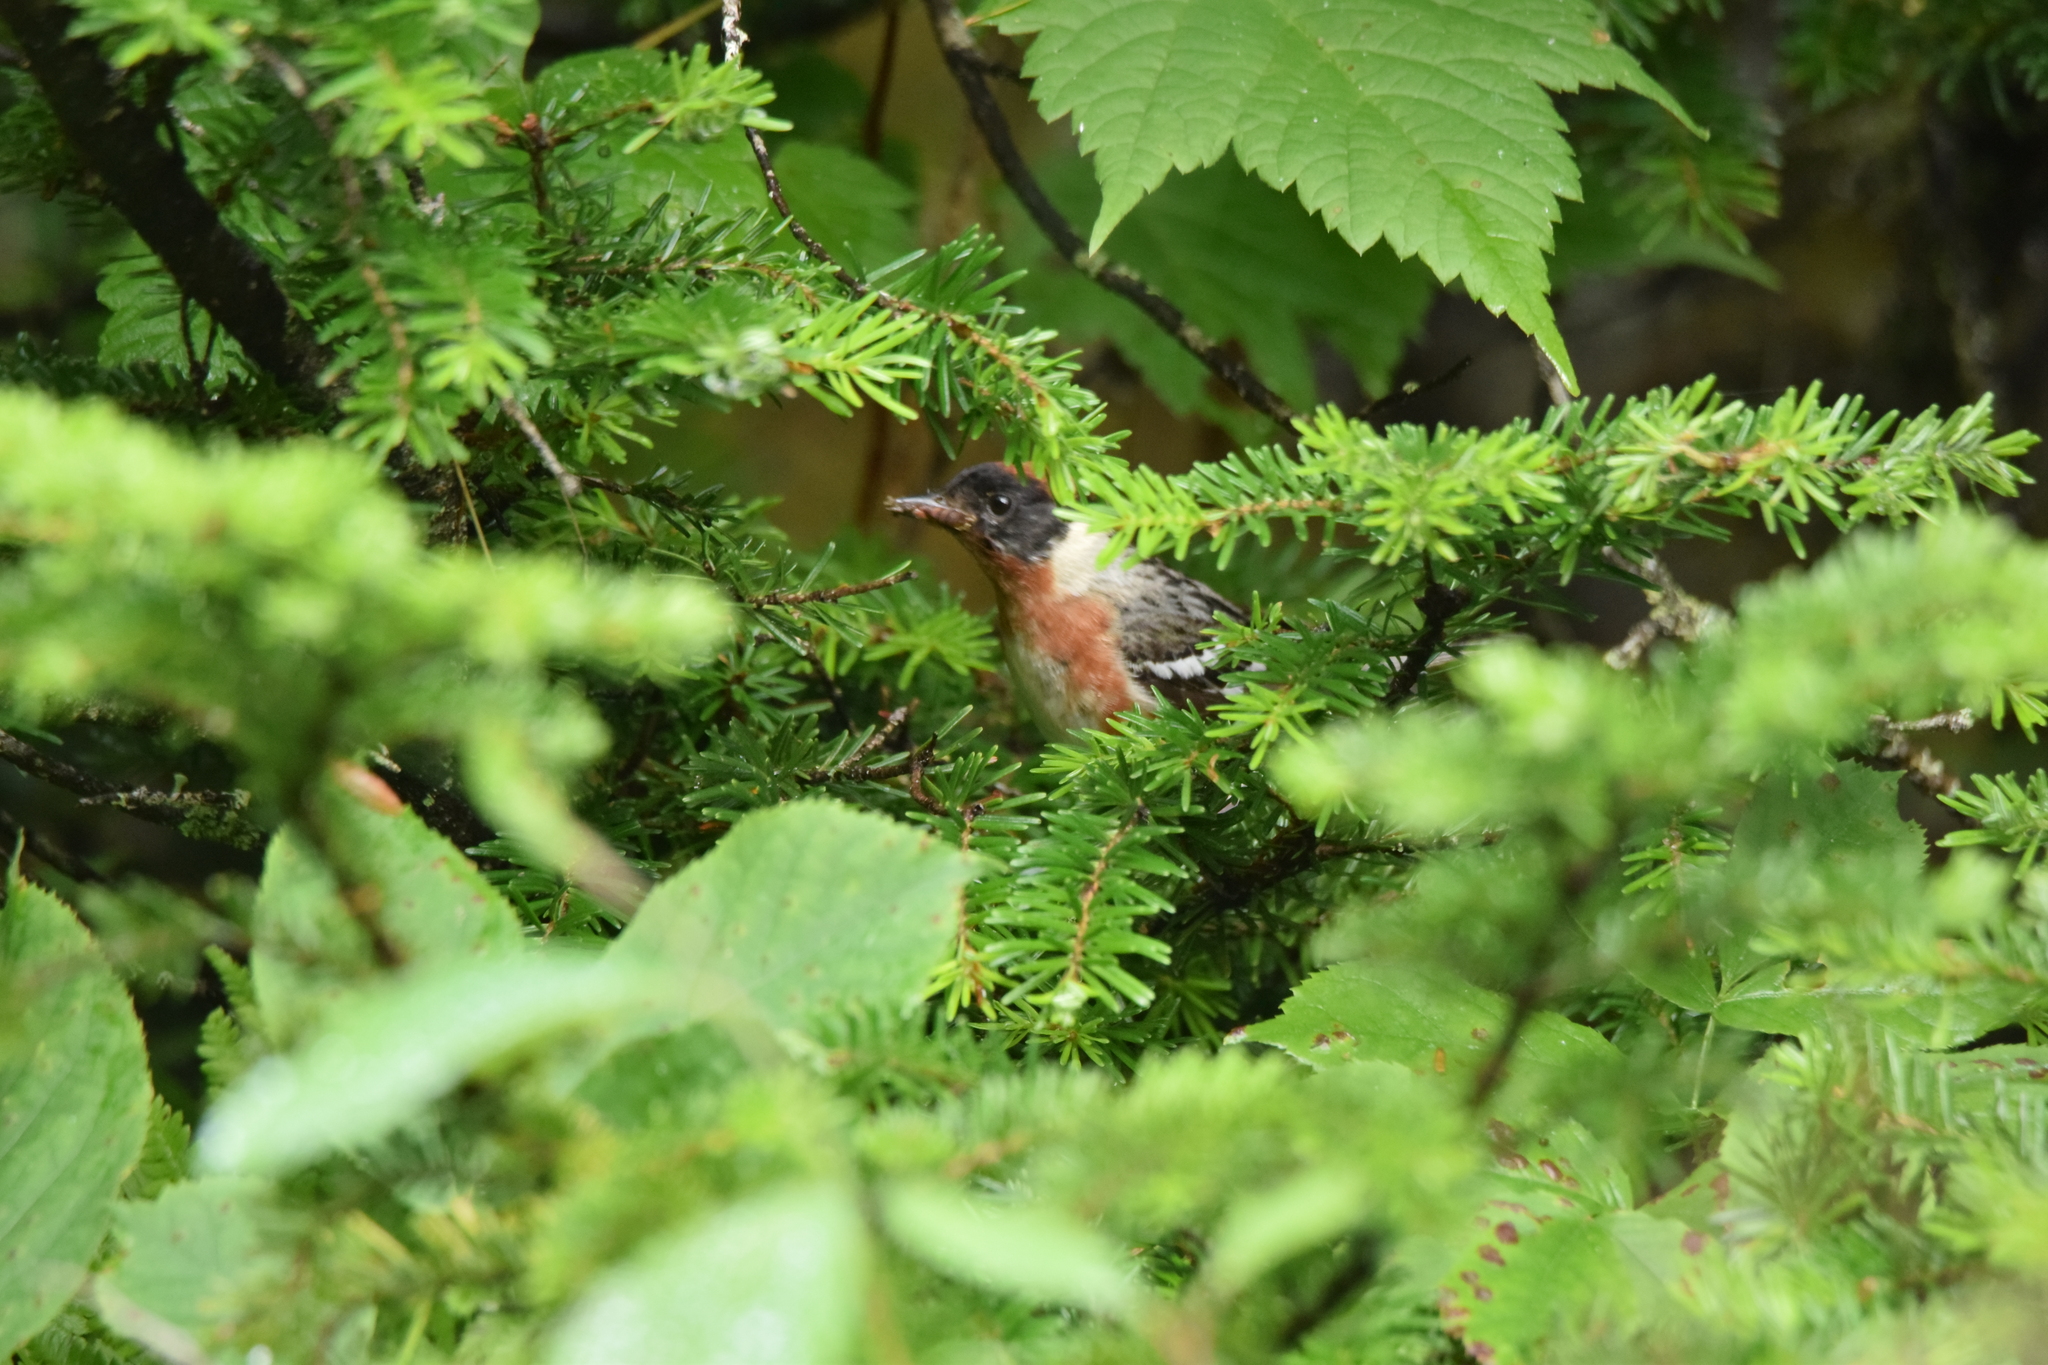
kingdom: Animalia
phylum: Chordata
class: Aves
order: Passeriformes
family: Parulidae
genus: Setophaga
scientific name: Setophaga castanea
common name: Bay-breasted warbler
